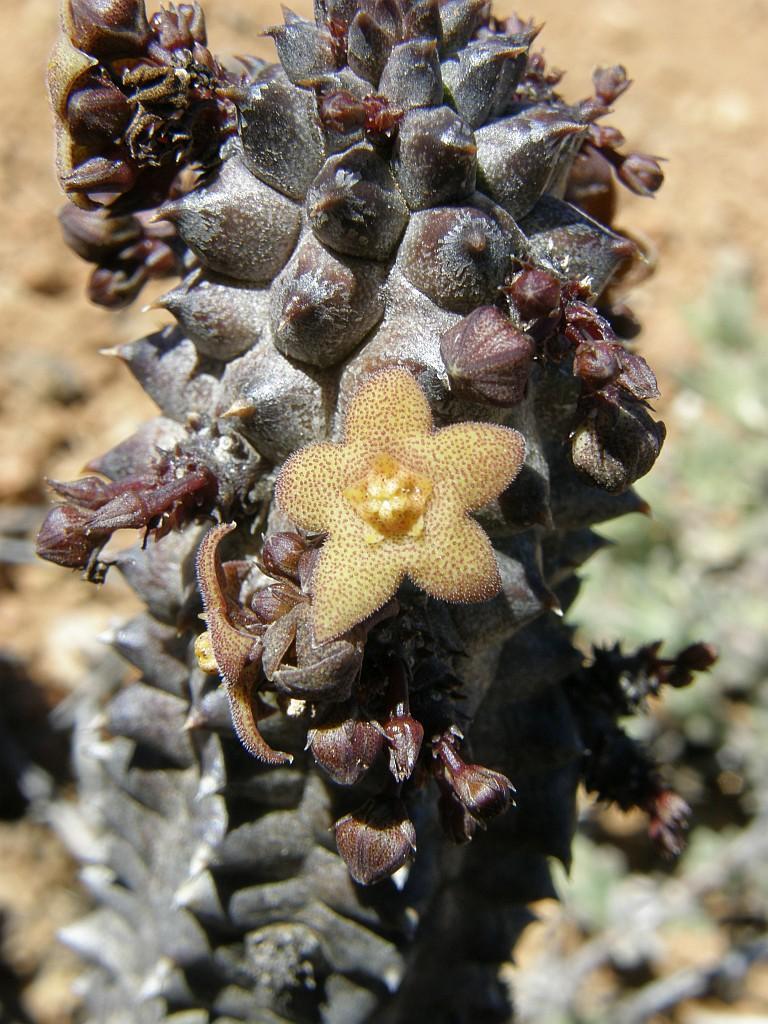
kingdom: Plantae
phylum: Tracheophyta
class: Magnoliopsida
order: Gentianales
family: Apocynaceae
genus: Ceropegia
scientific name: Ceropegia columnaris
